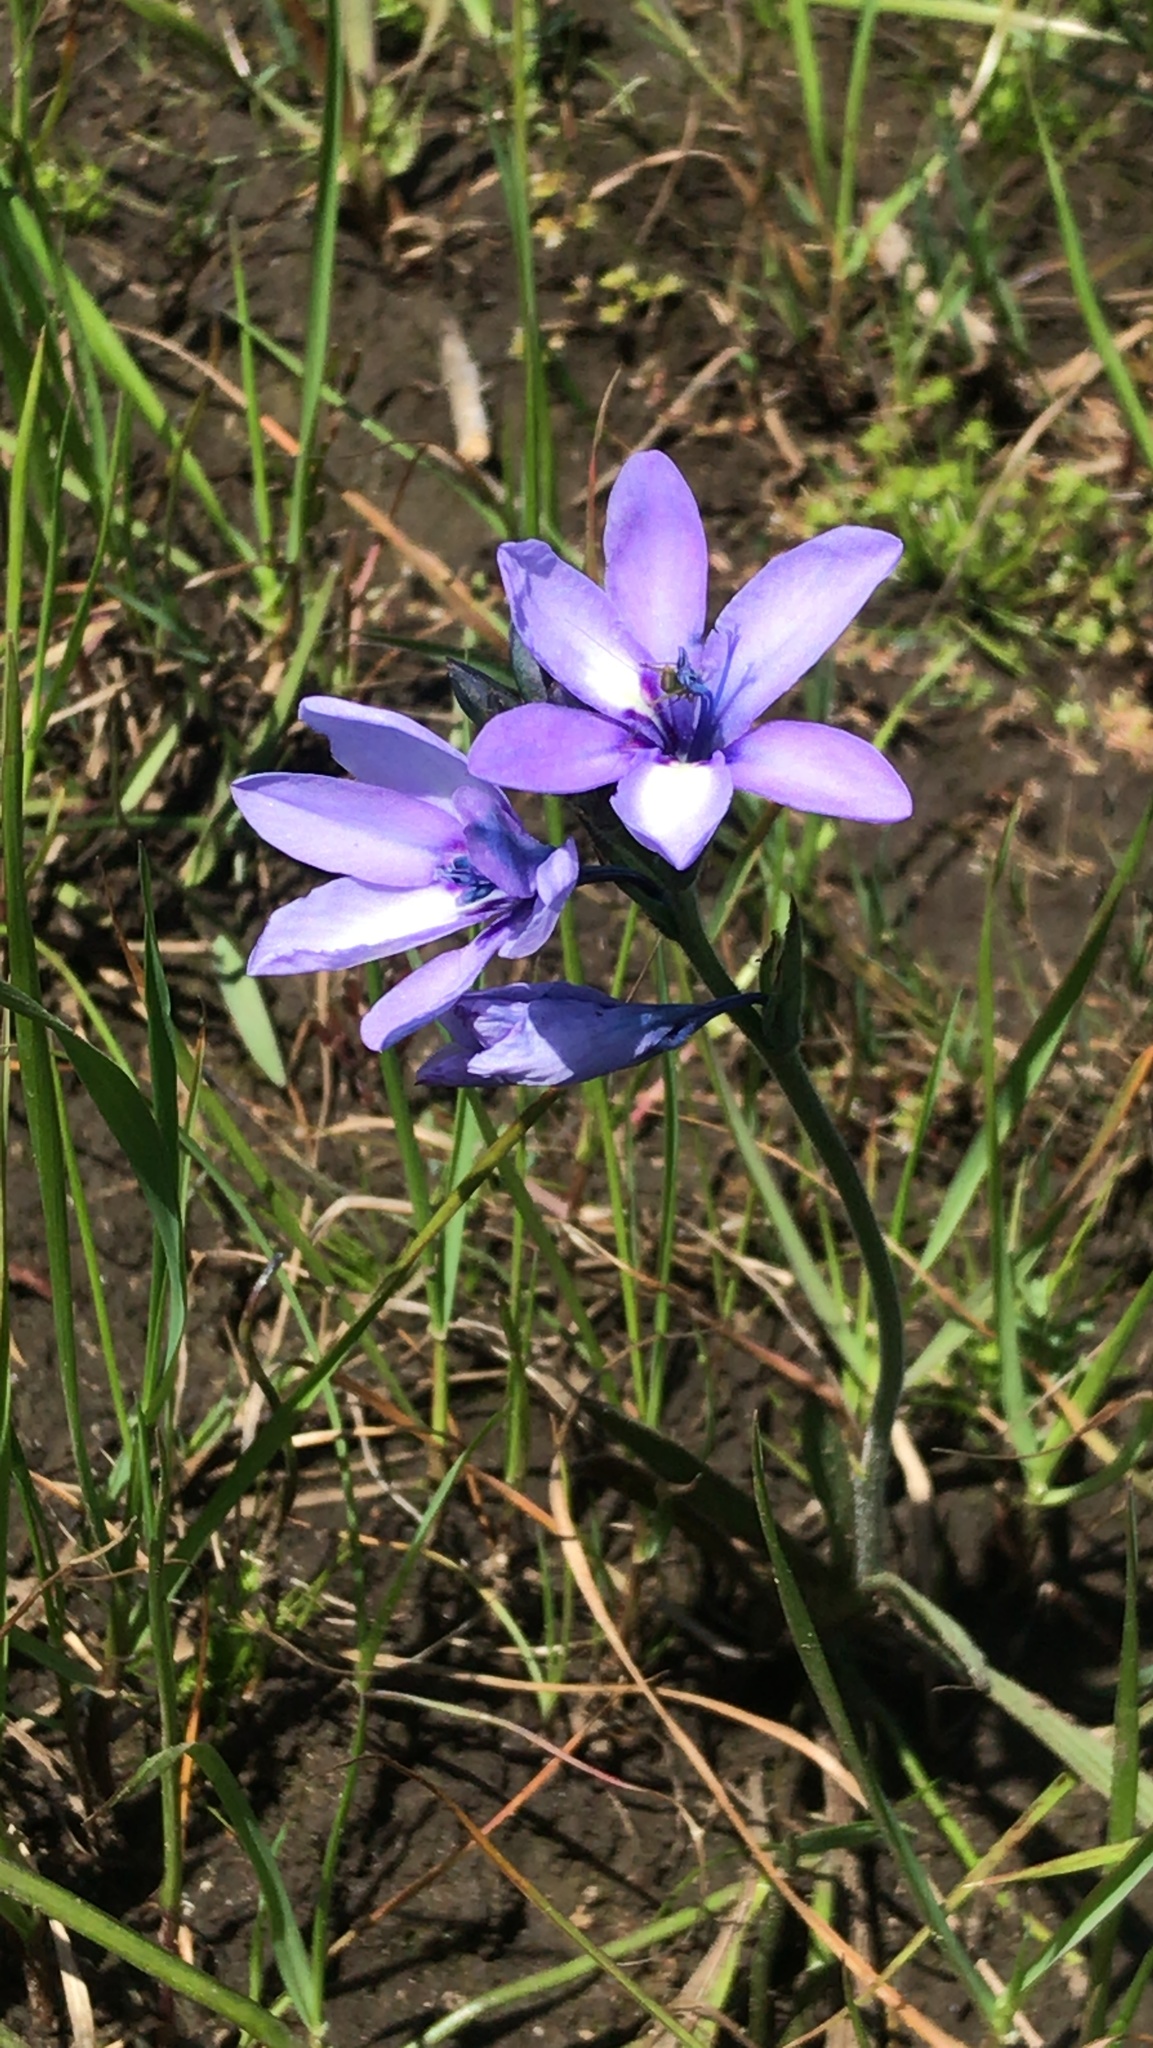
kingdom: Plantae
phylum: Tracheophyta
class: Liliopsida
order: Asparagales
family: Iridaceae
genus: Babiana
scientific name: Babiana fragrans
